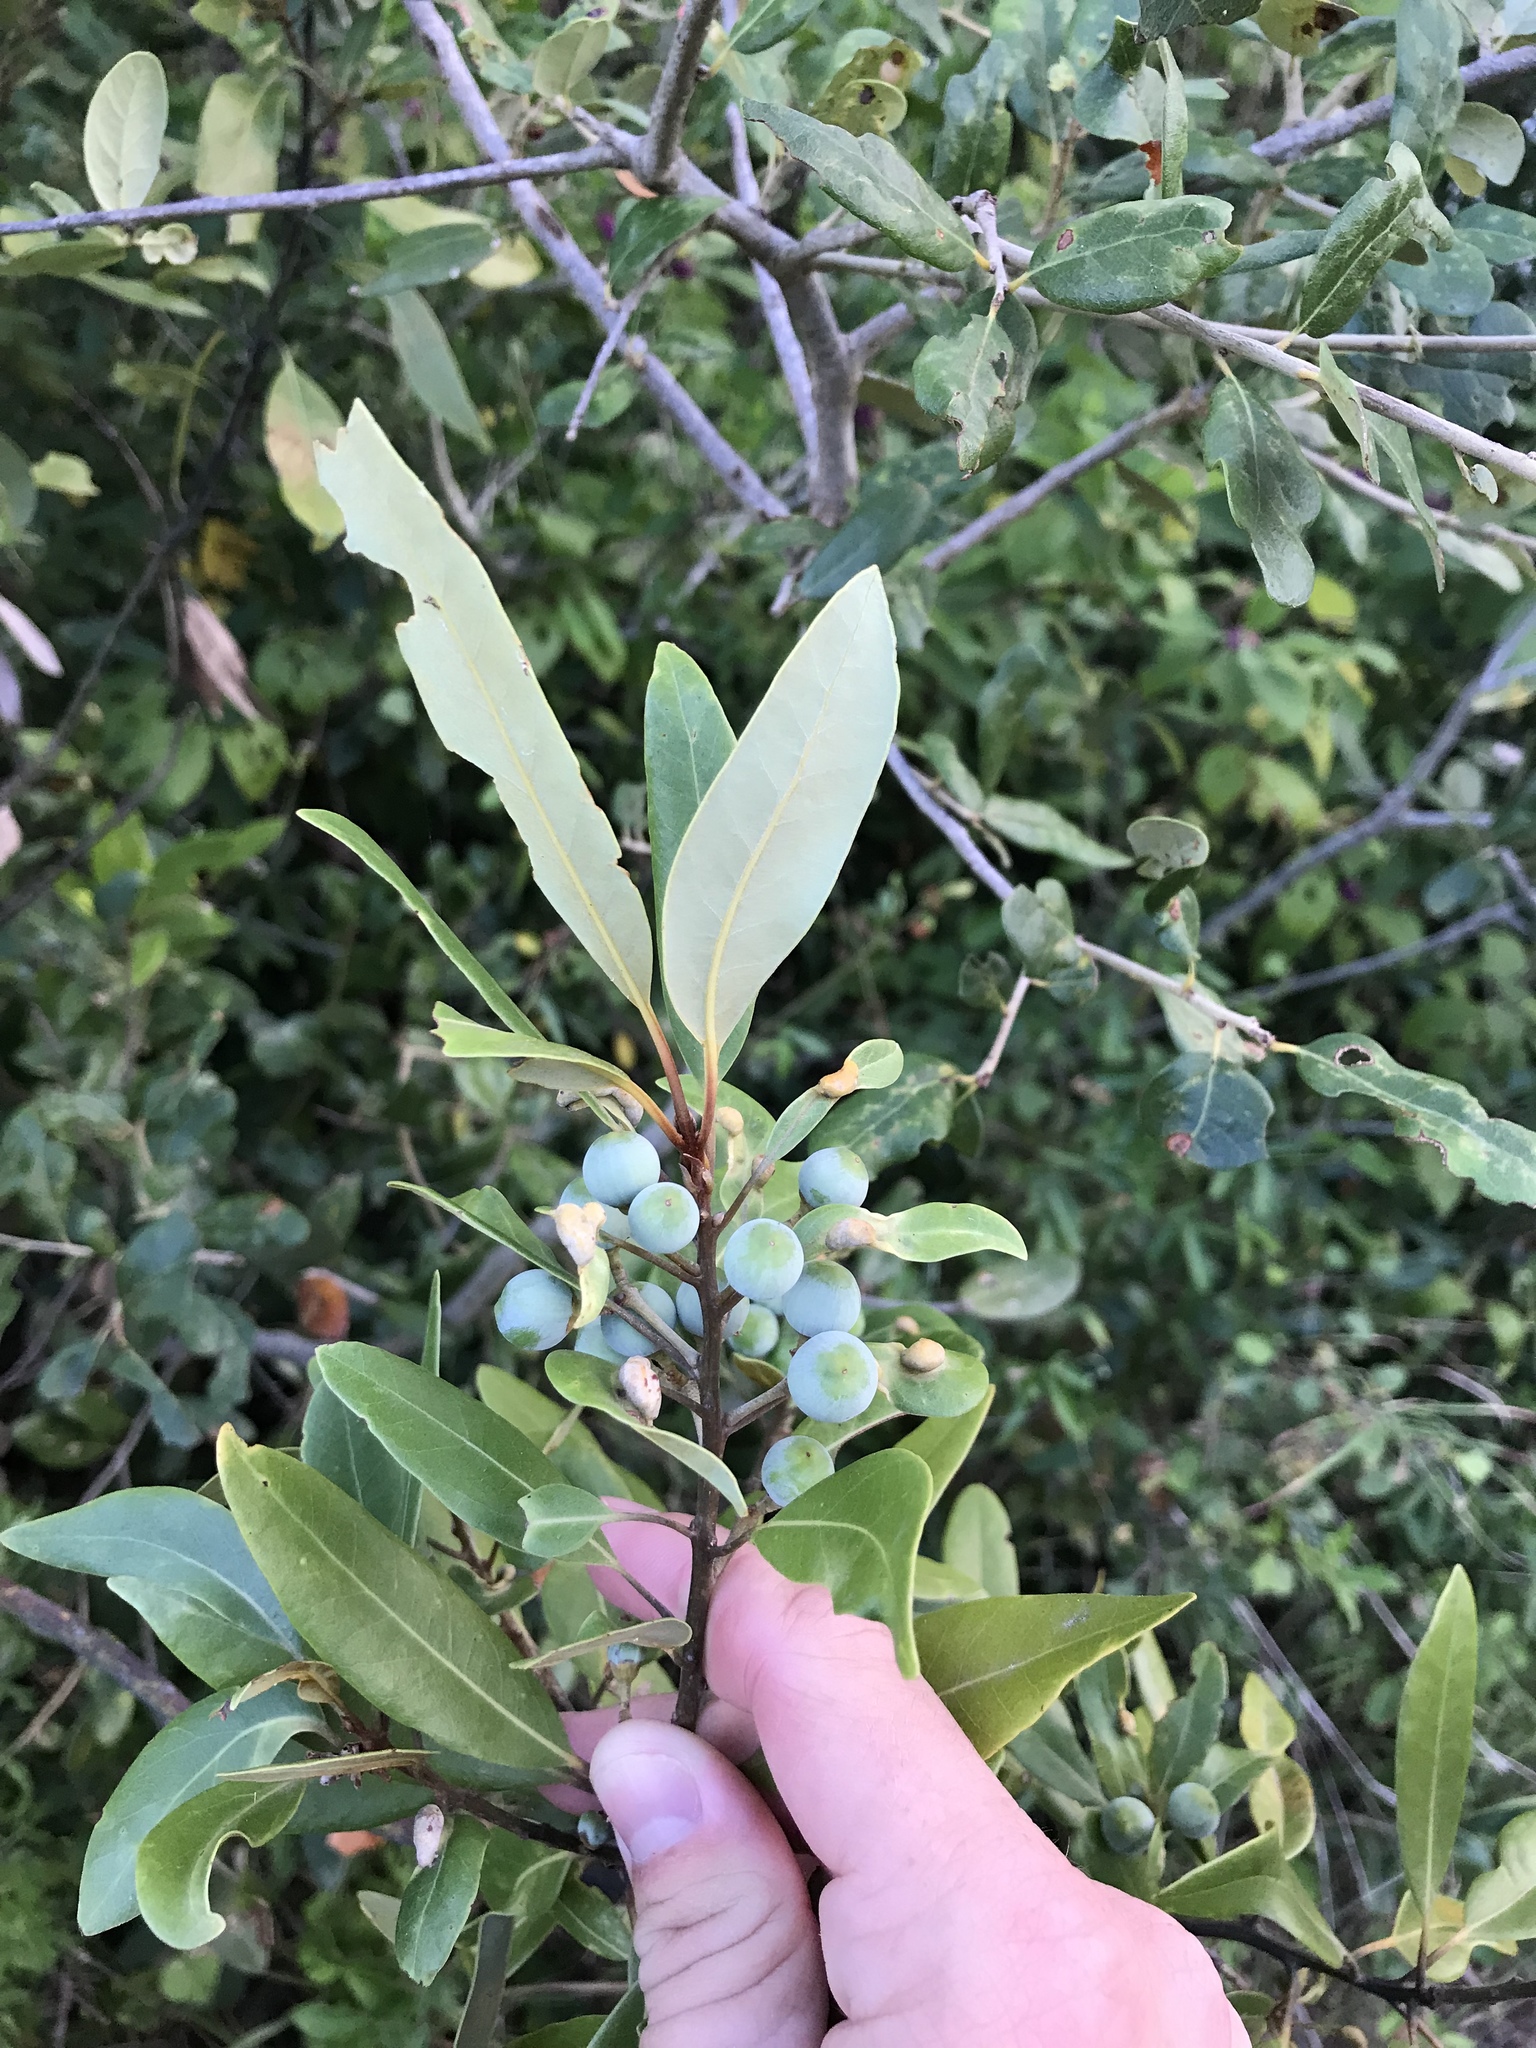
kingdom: Plantae
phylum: Tracheophyta
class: Magnoliopsida
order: Laurales
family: Lauraceae
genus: Persea
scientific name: Persea borbonia
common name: Redbay
